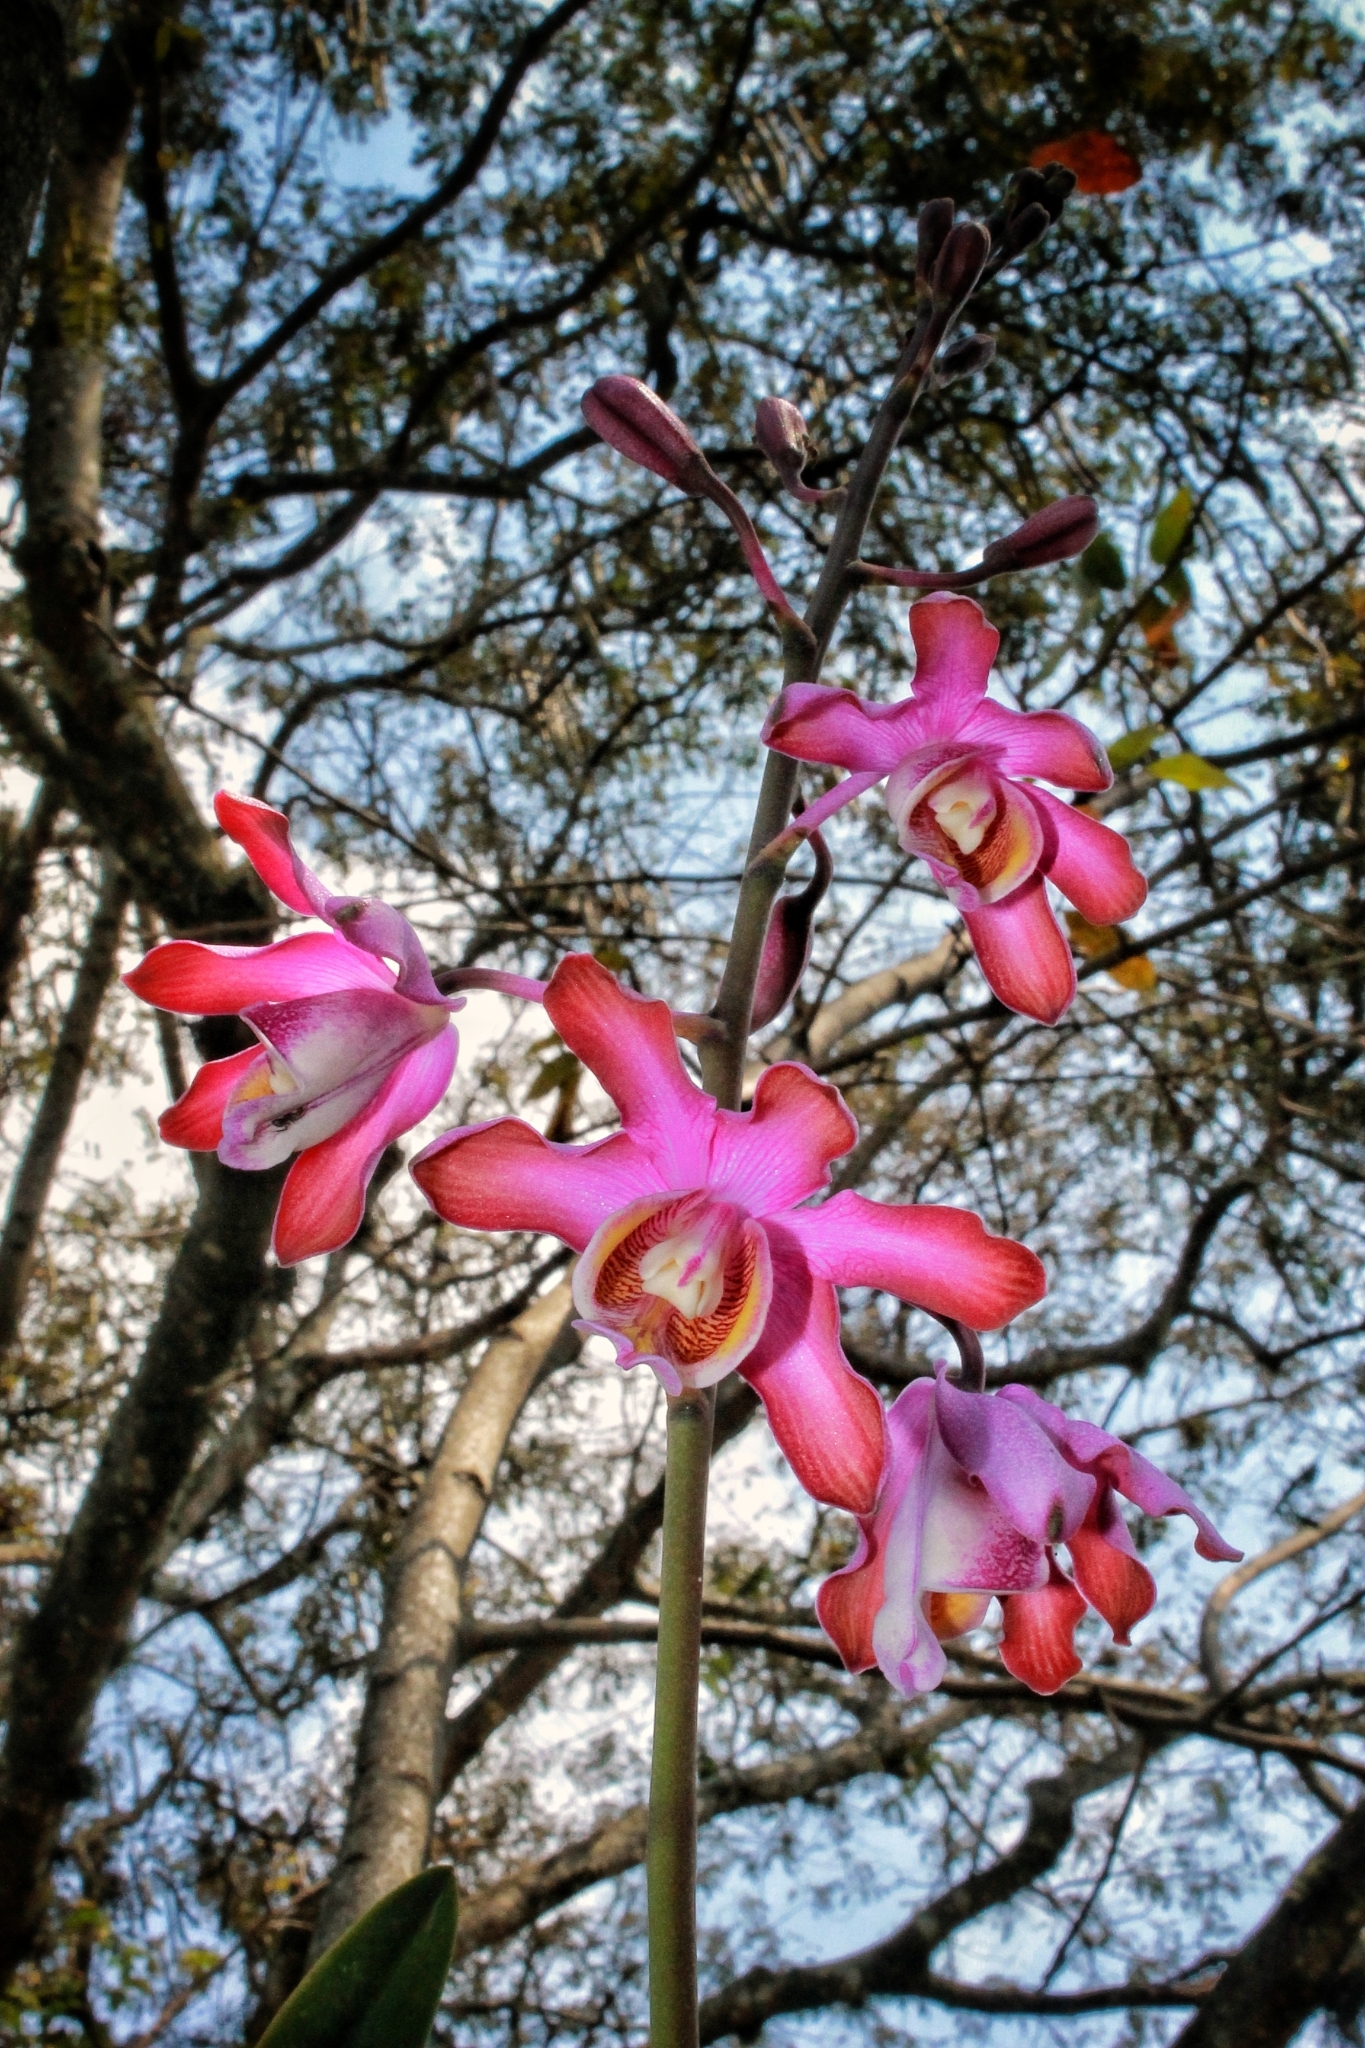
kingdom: Plantae
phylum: Tracheophyta
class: Liliopsida
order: Asparagales
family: Orchidaceae
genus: Myrmecophila
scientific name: Myrmecophila grandiflora
